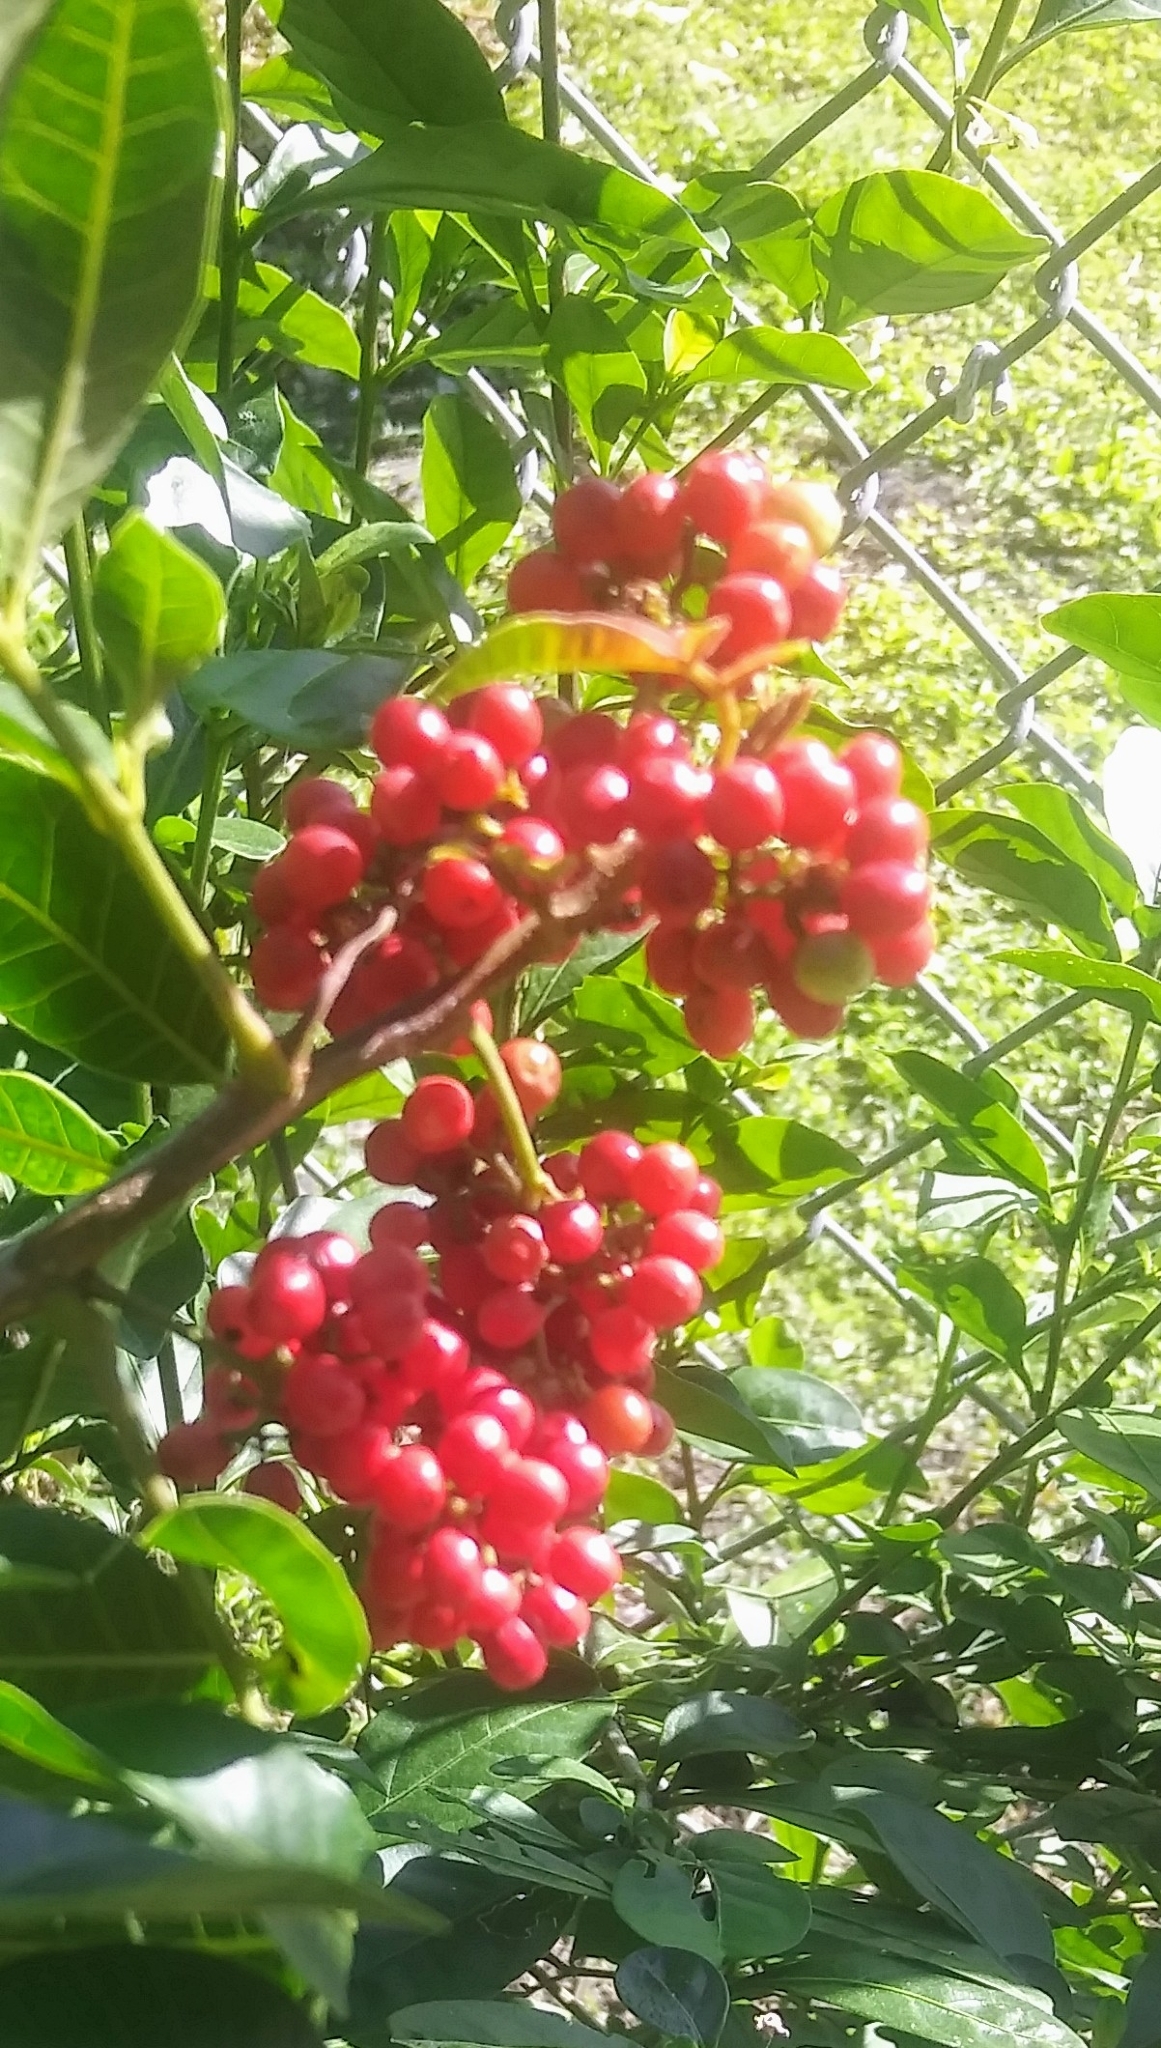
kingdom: Plantae
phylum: Tracheophyta
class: Magnoliopsida
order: Sapindales
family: Anacardiaceae
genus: Schinus
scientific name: Schinus terebinthifolia
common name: Brazilian peppertree
